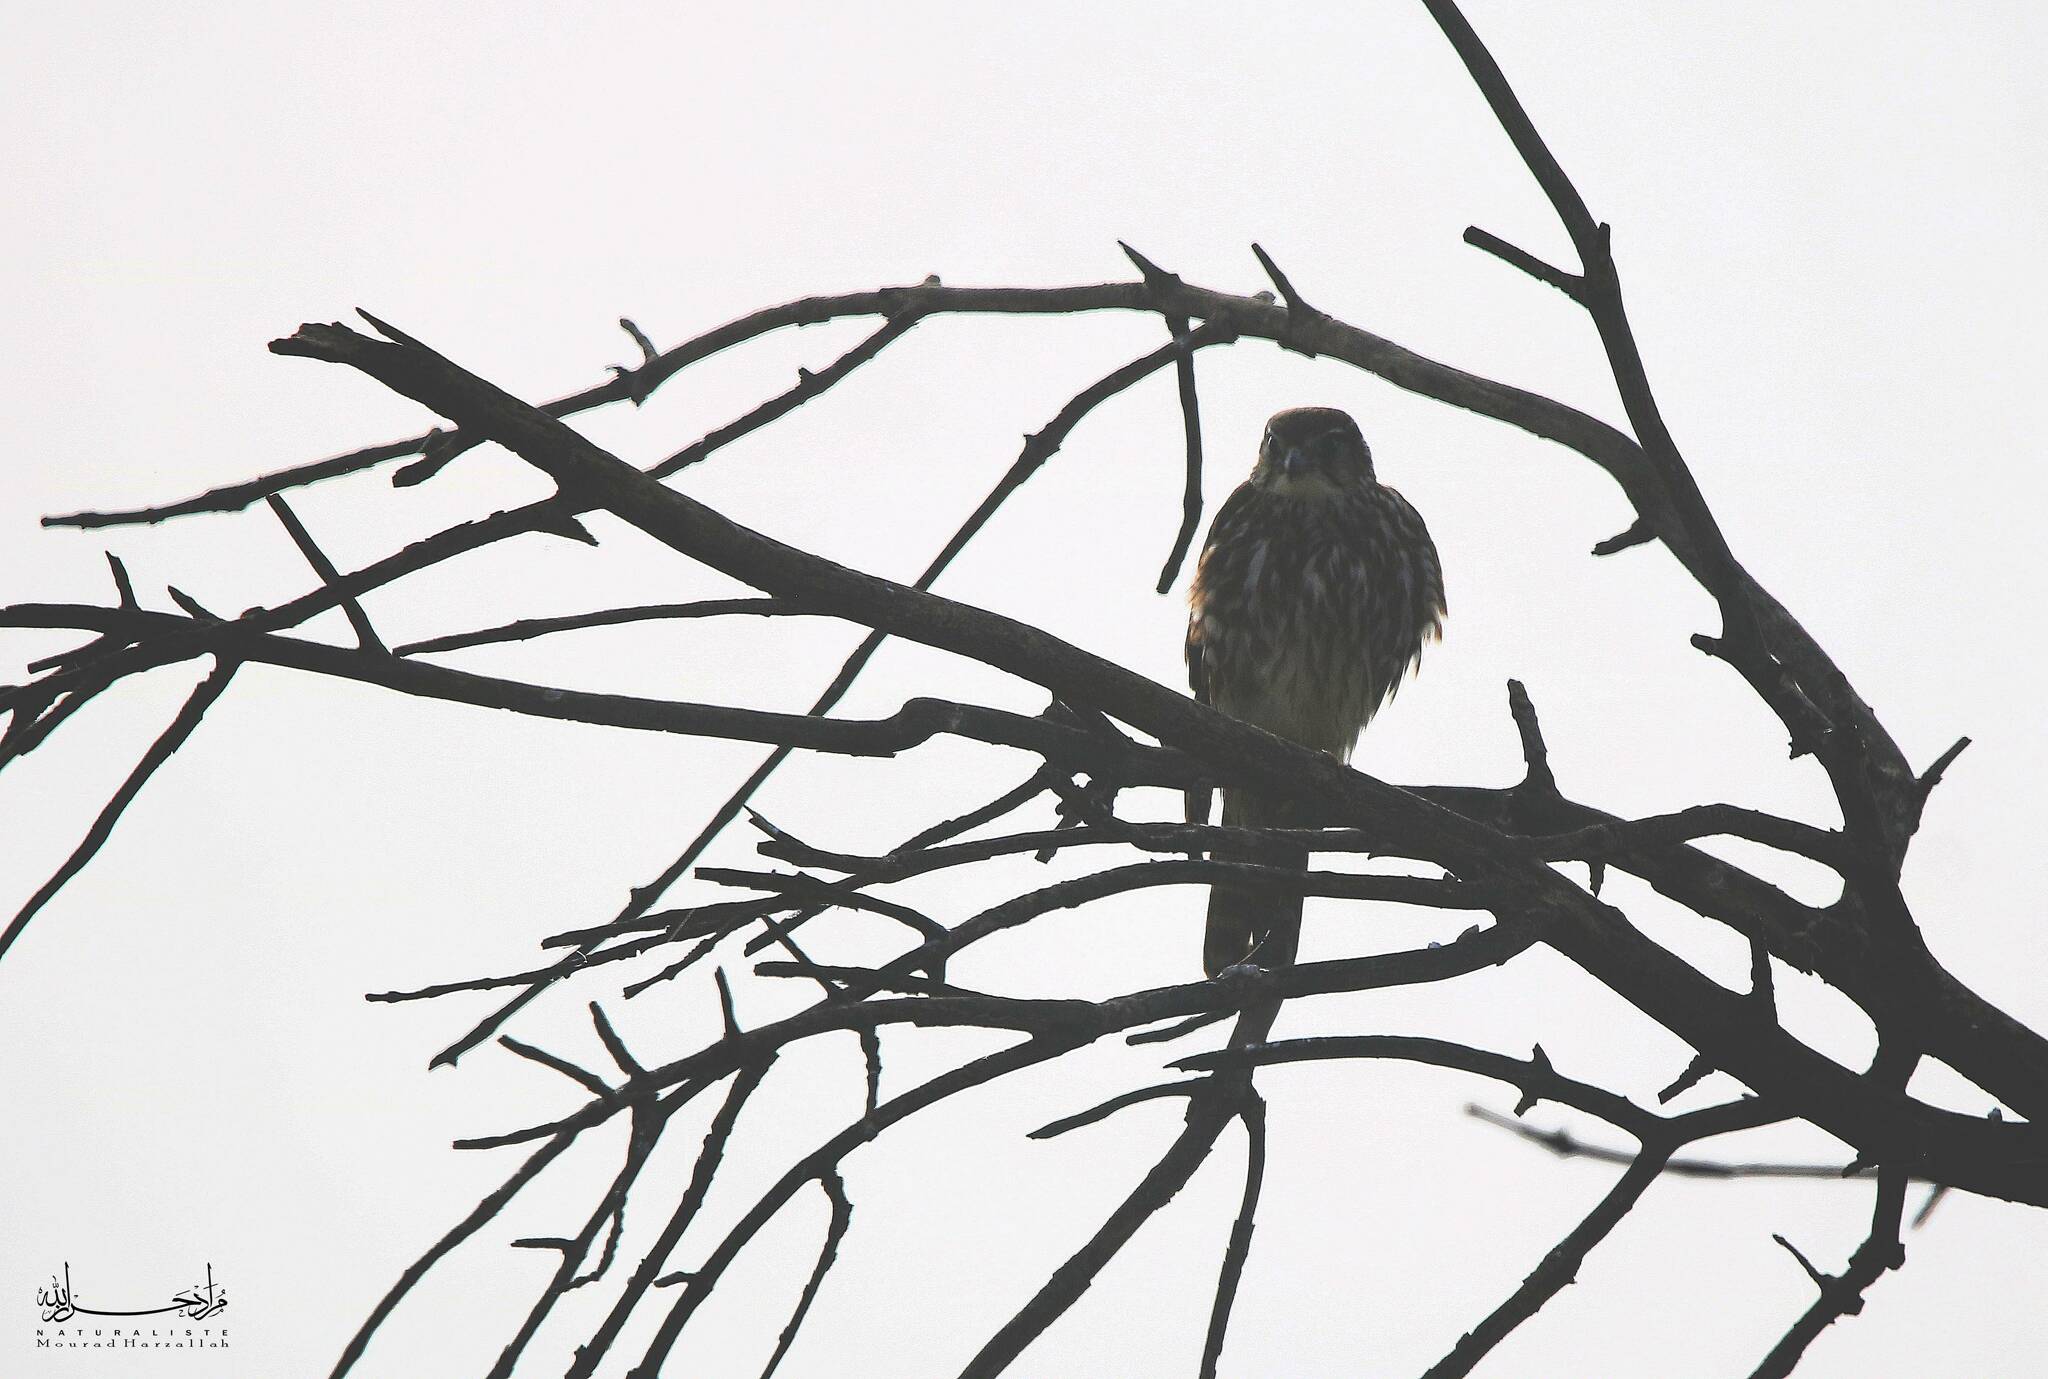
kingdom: Animalia
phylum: Chordata
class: Aves
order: Falconiformes
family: Falconidae
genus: Falco
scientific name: Falco columbarius
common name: Merlin
